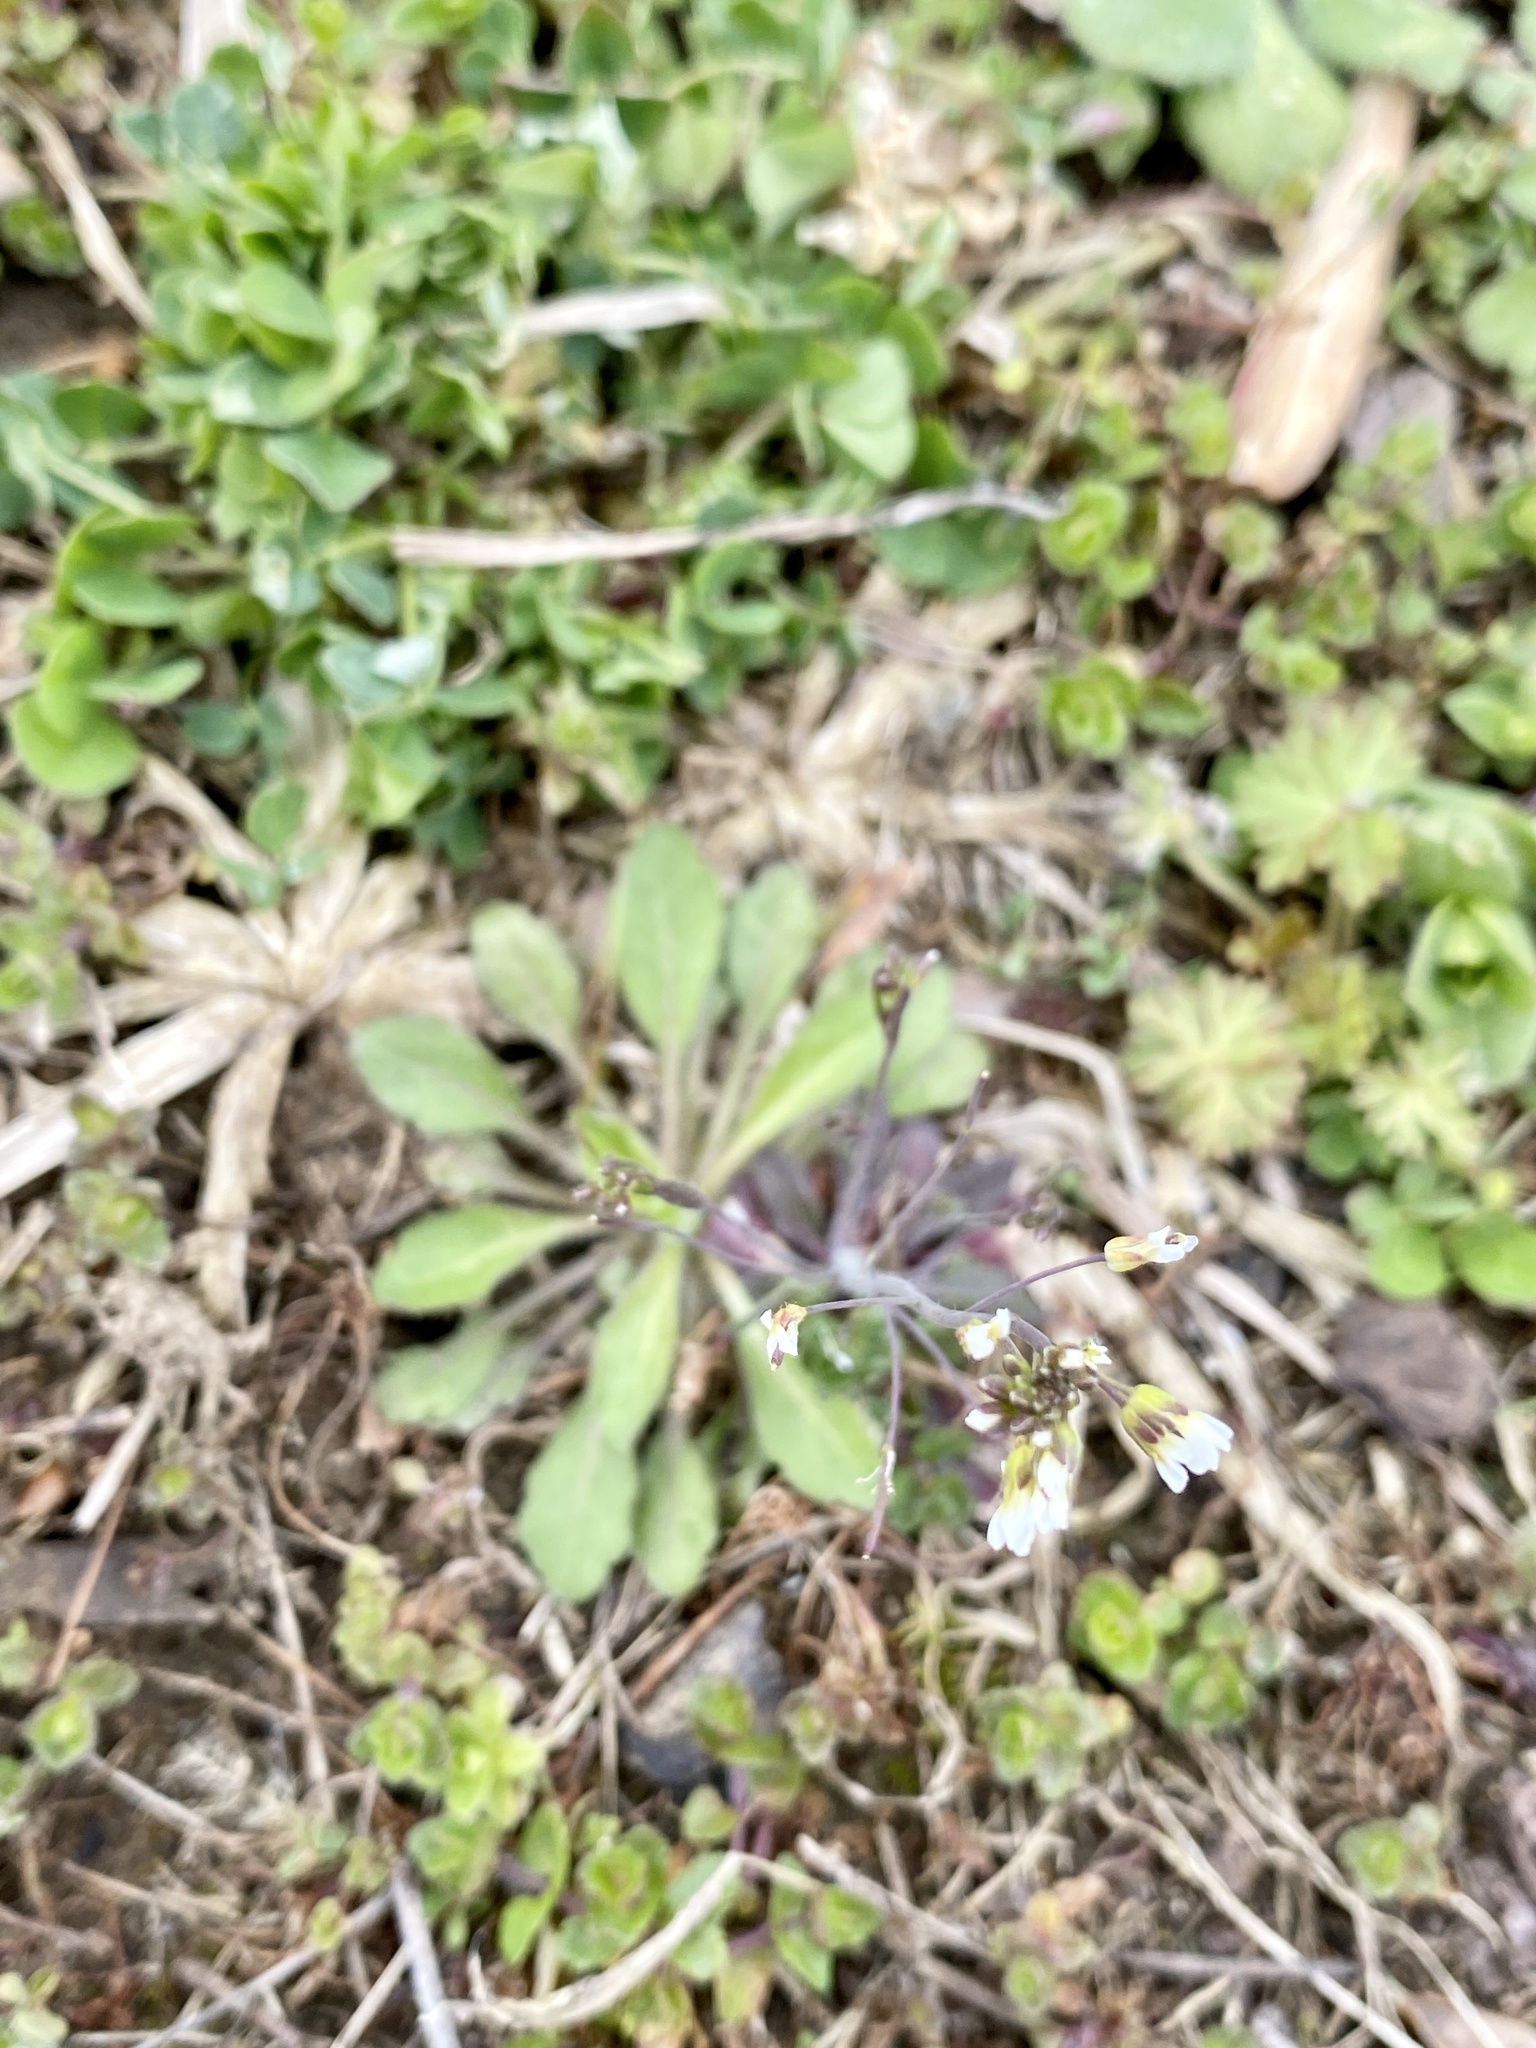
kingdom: Plantae
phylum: Tracheophyta
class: Magnoliopsida
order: Brassicales
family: Brassicaceae
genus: Arabidopsis
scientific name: Arabidopsis thaliana
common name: Thale cress
